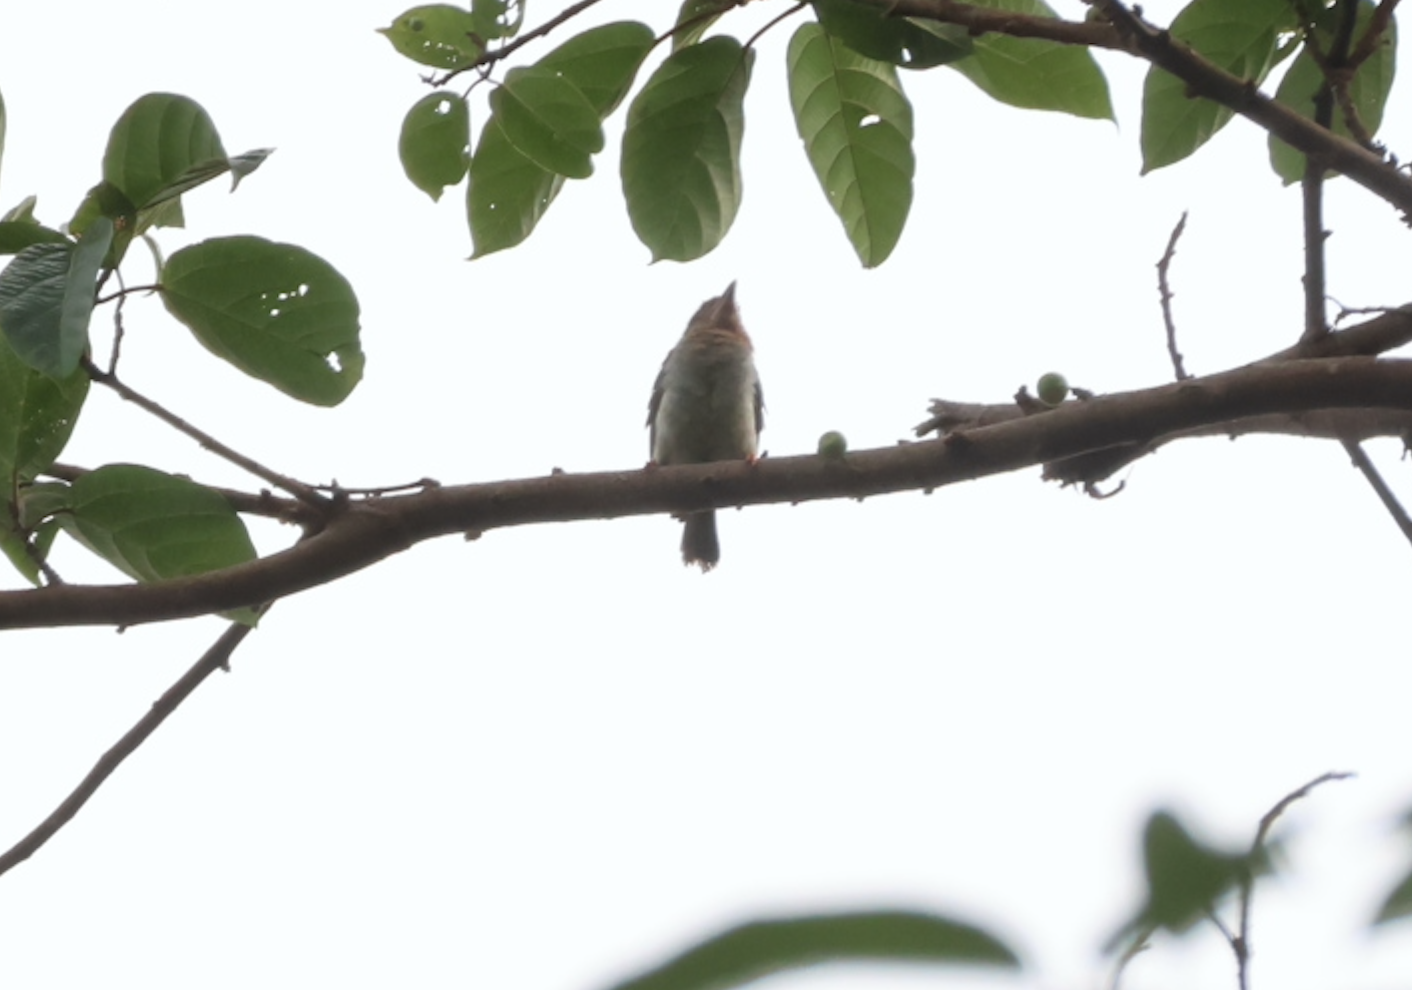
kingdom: Animalia
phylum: Chordata
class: Aves
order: Piciformes
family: Megalaimidae
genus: Caloramphus
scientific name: Caloramphus fuliginosus
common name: Brown barbet
